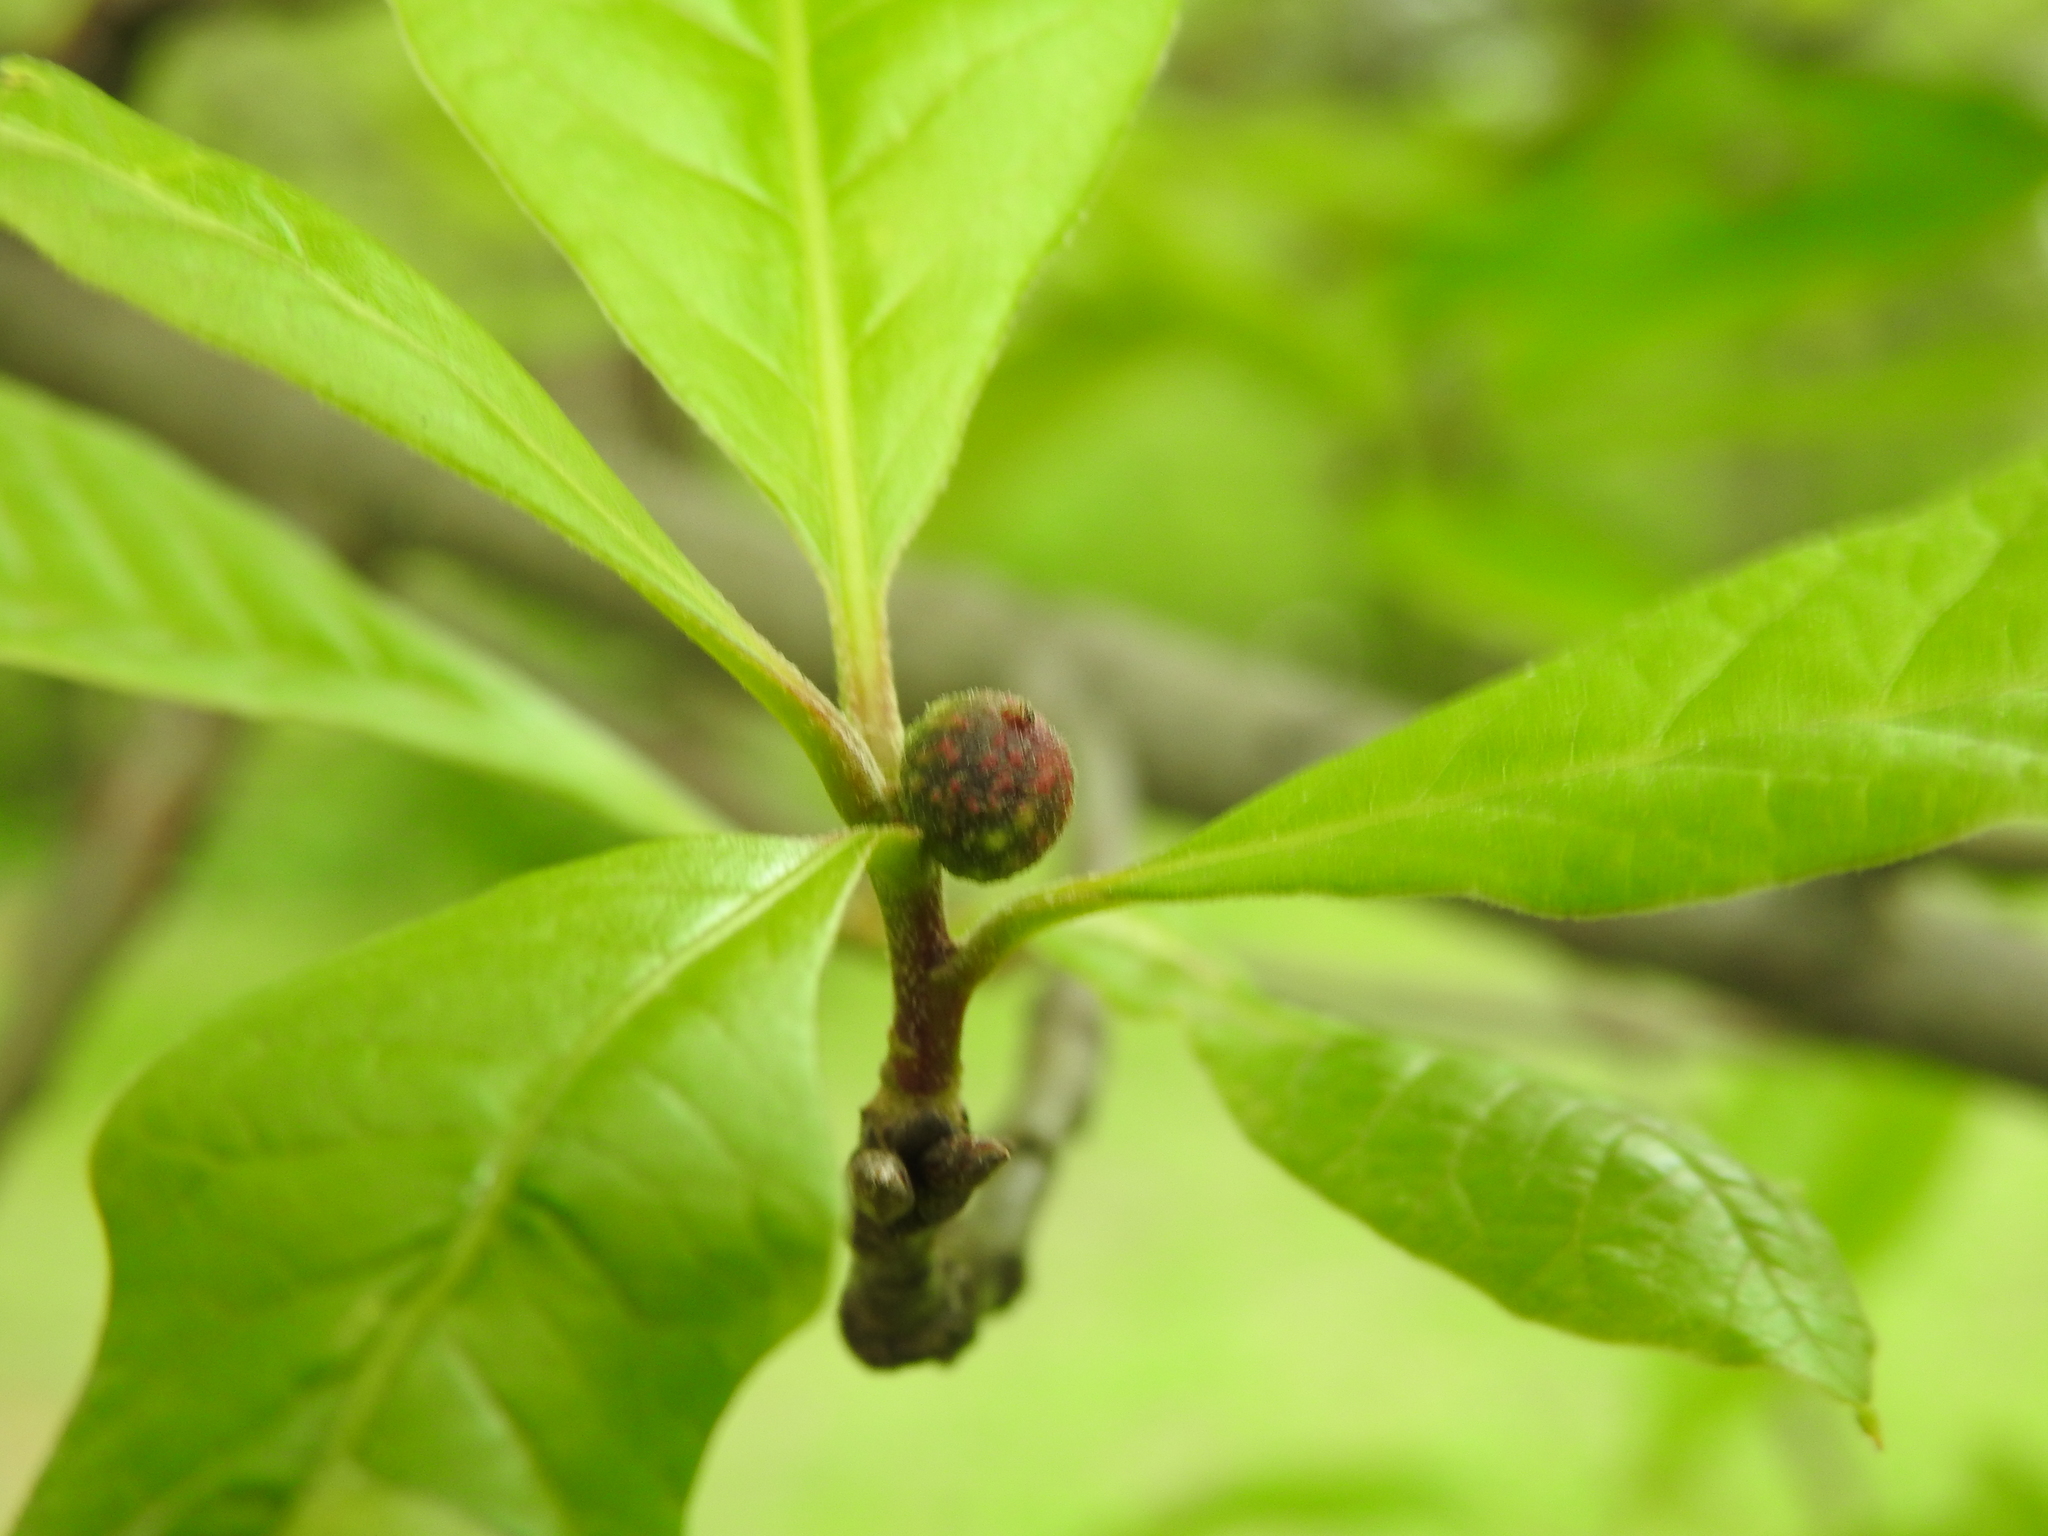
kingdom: Animalia
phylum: Arthropoda
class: Insecta
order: Hymenoptera
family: Cynipidae
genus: Dryocosmus
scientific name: Dryocosmus quercuspalustris
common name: Succulent oak gall wasp
